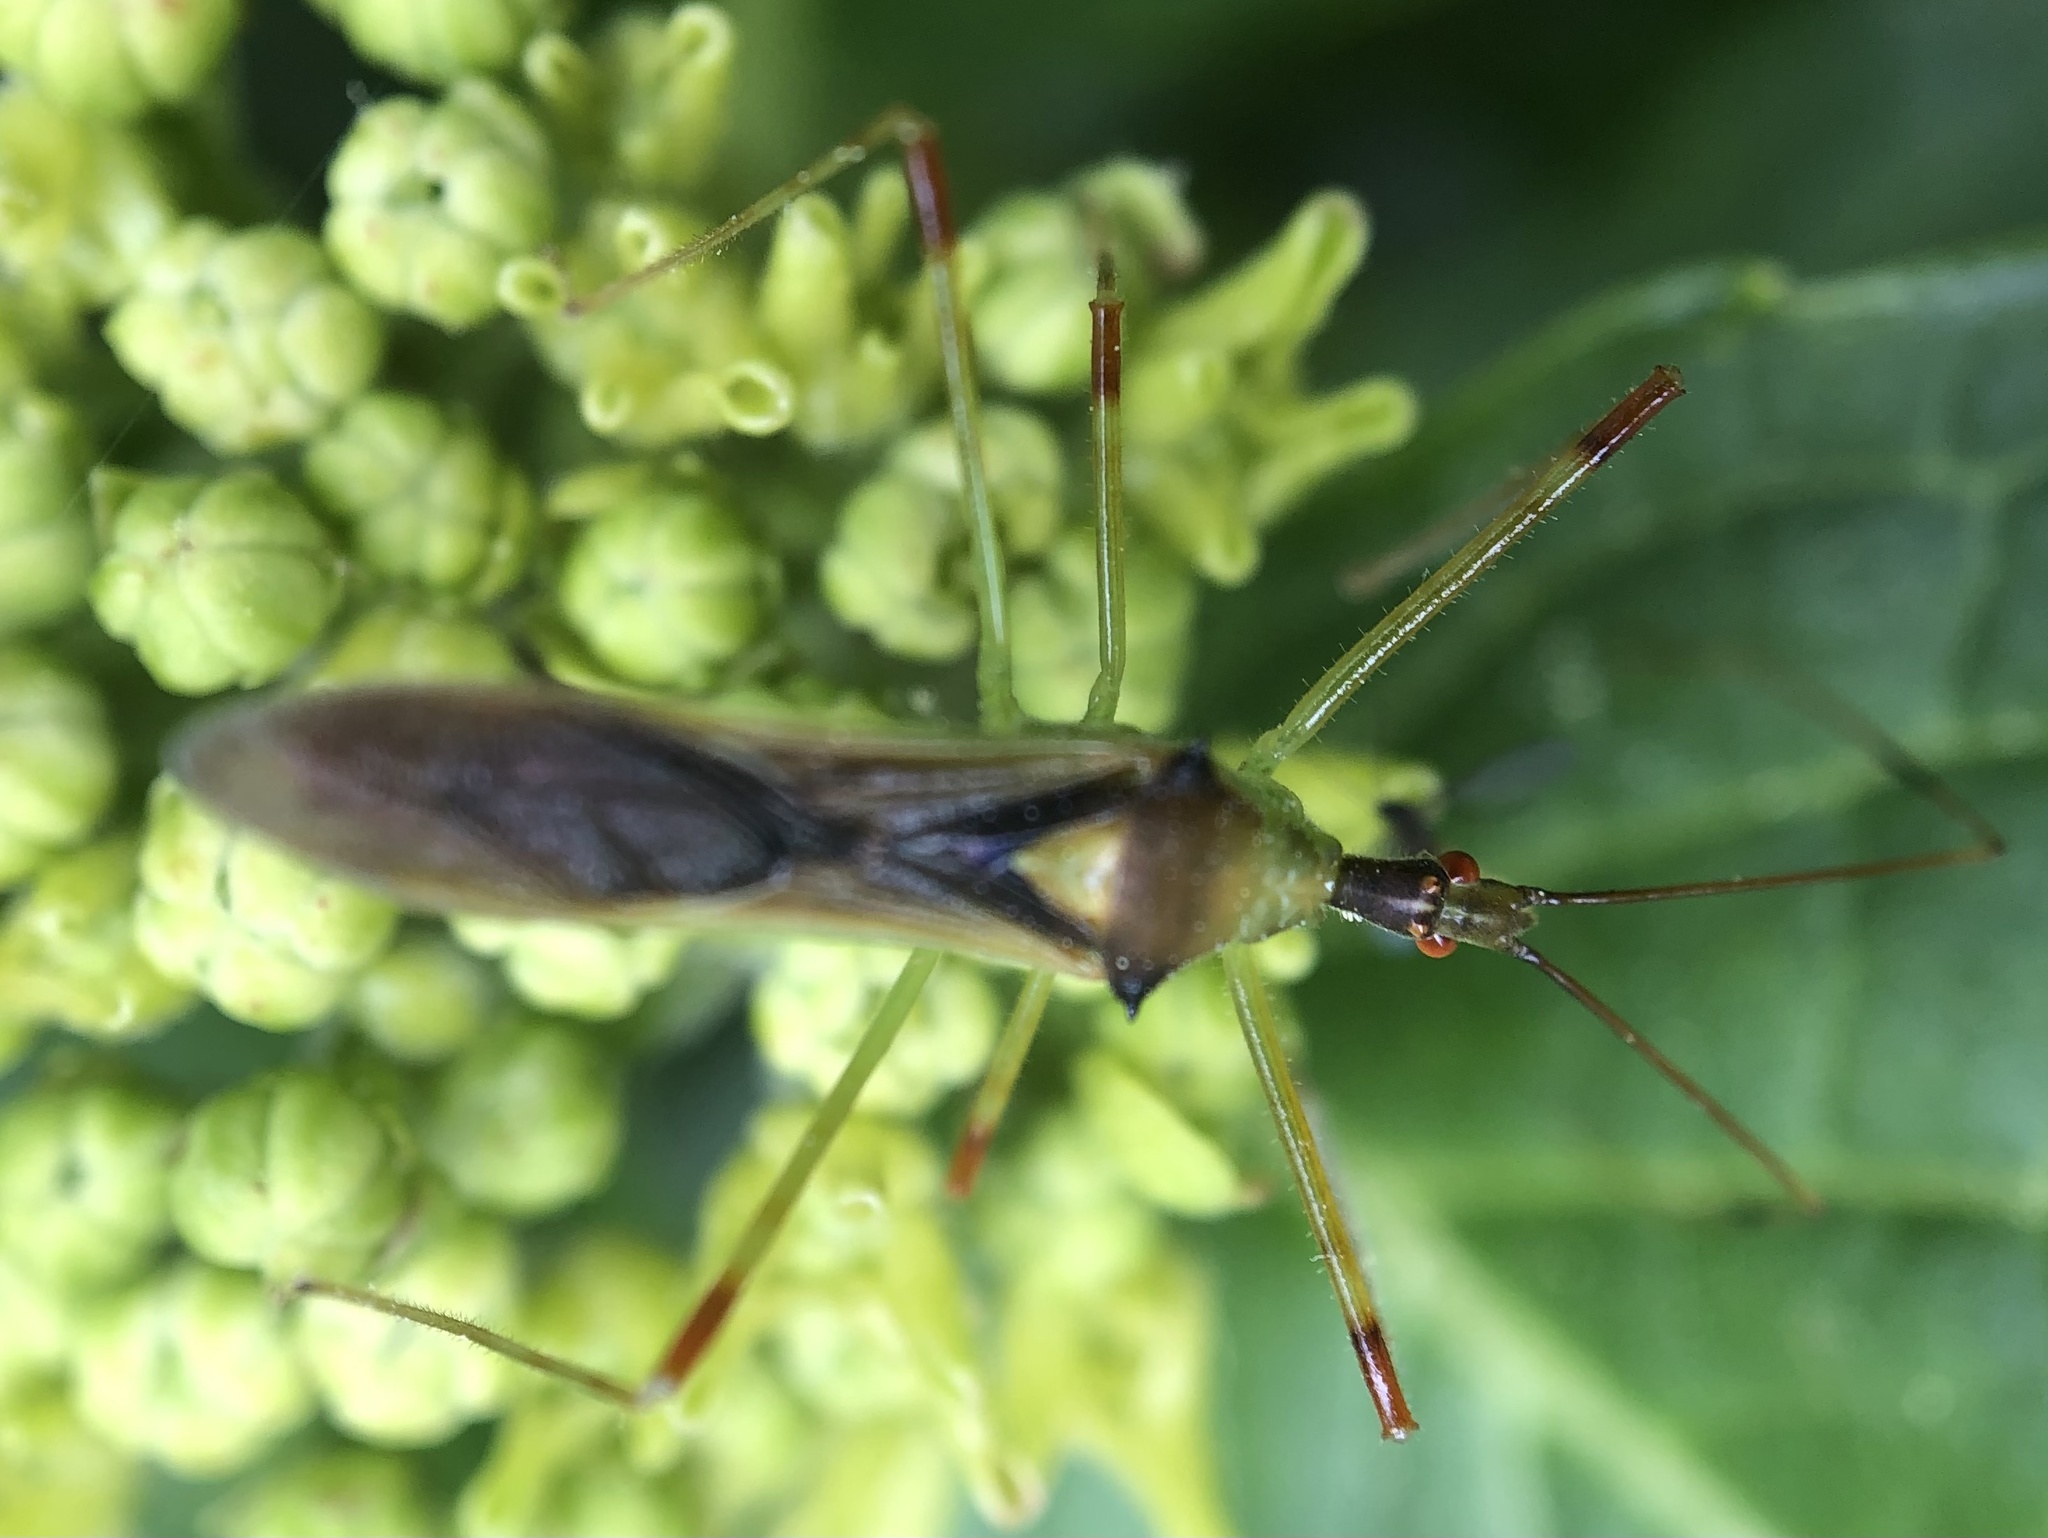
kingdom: Animalia
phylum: Arthropoda
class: Insecta
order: Hemiptera
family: Reduviidae
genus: Zelus
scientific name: Zelus luridus
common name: Pale green assassin bug
